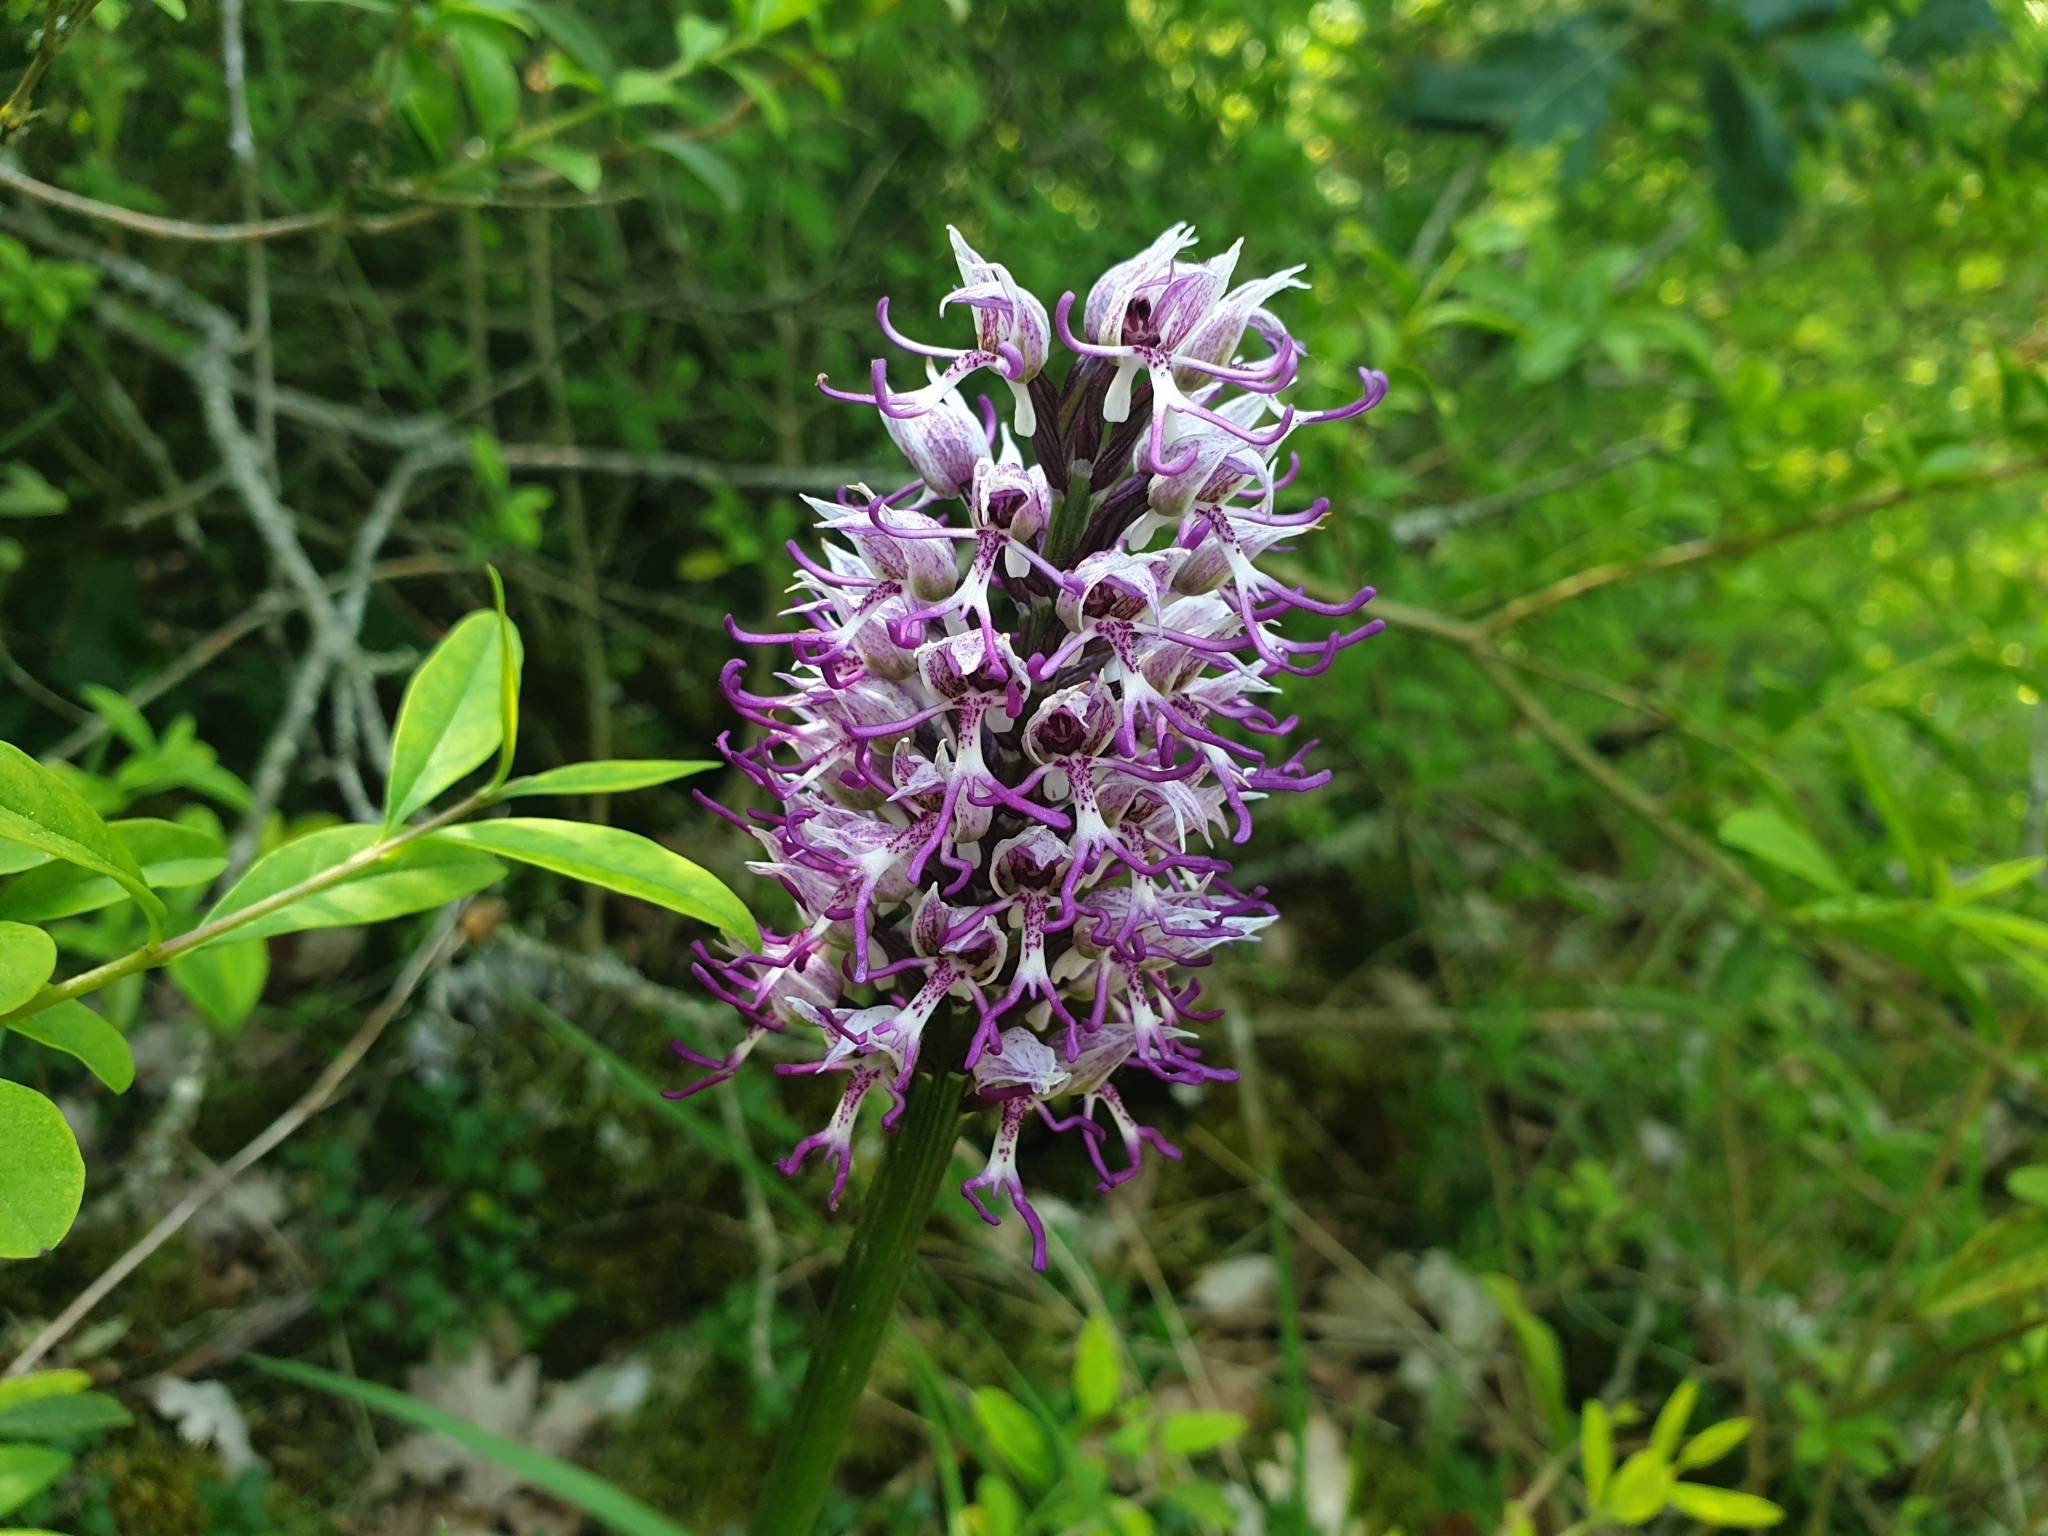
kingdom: Plantae
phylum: Tracheophyta
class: Liliopsida
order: Asparagales
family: Orchidaceae
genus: Orchis
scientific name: Orchis simia
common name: Monkey orchid
